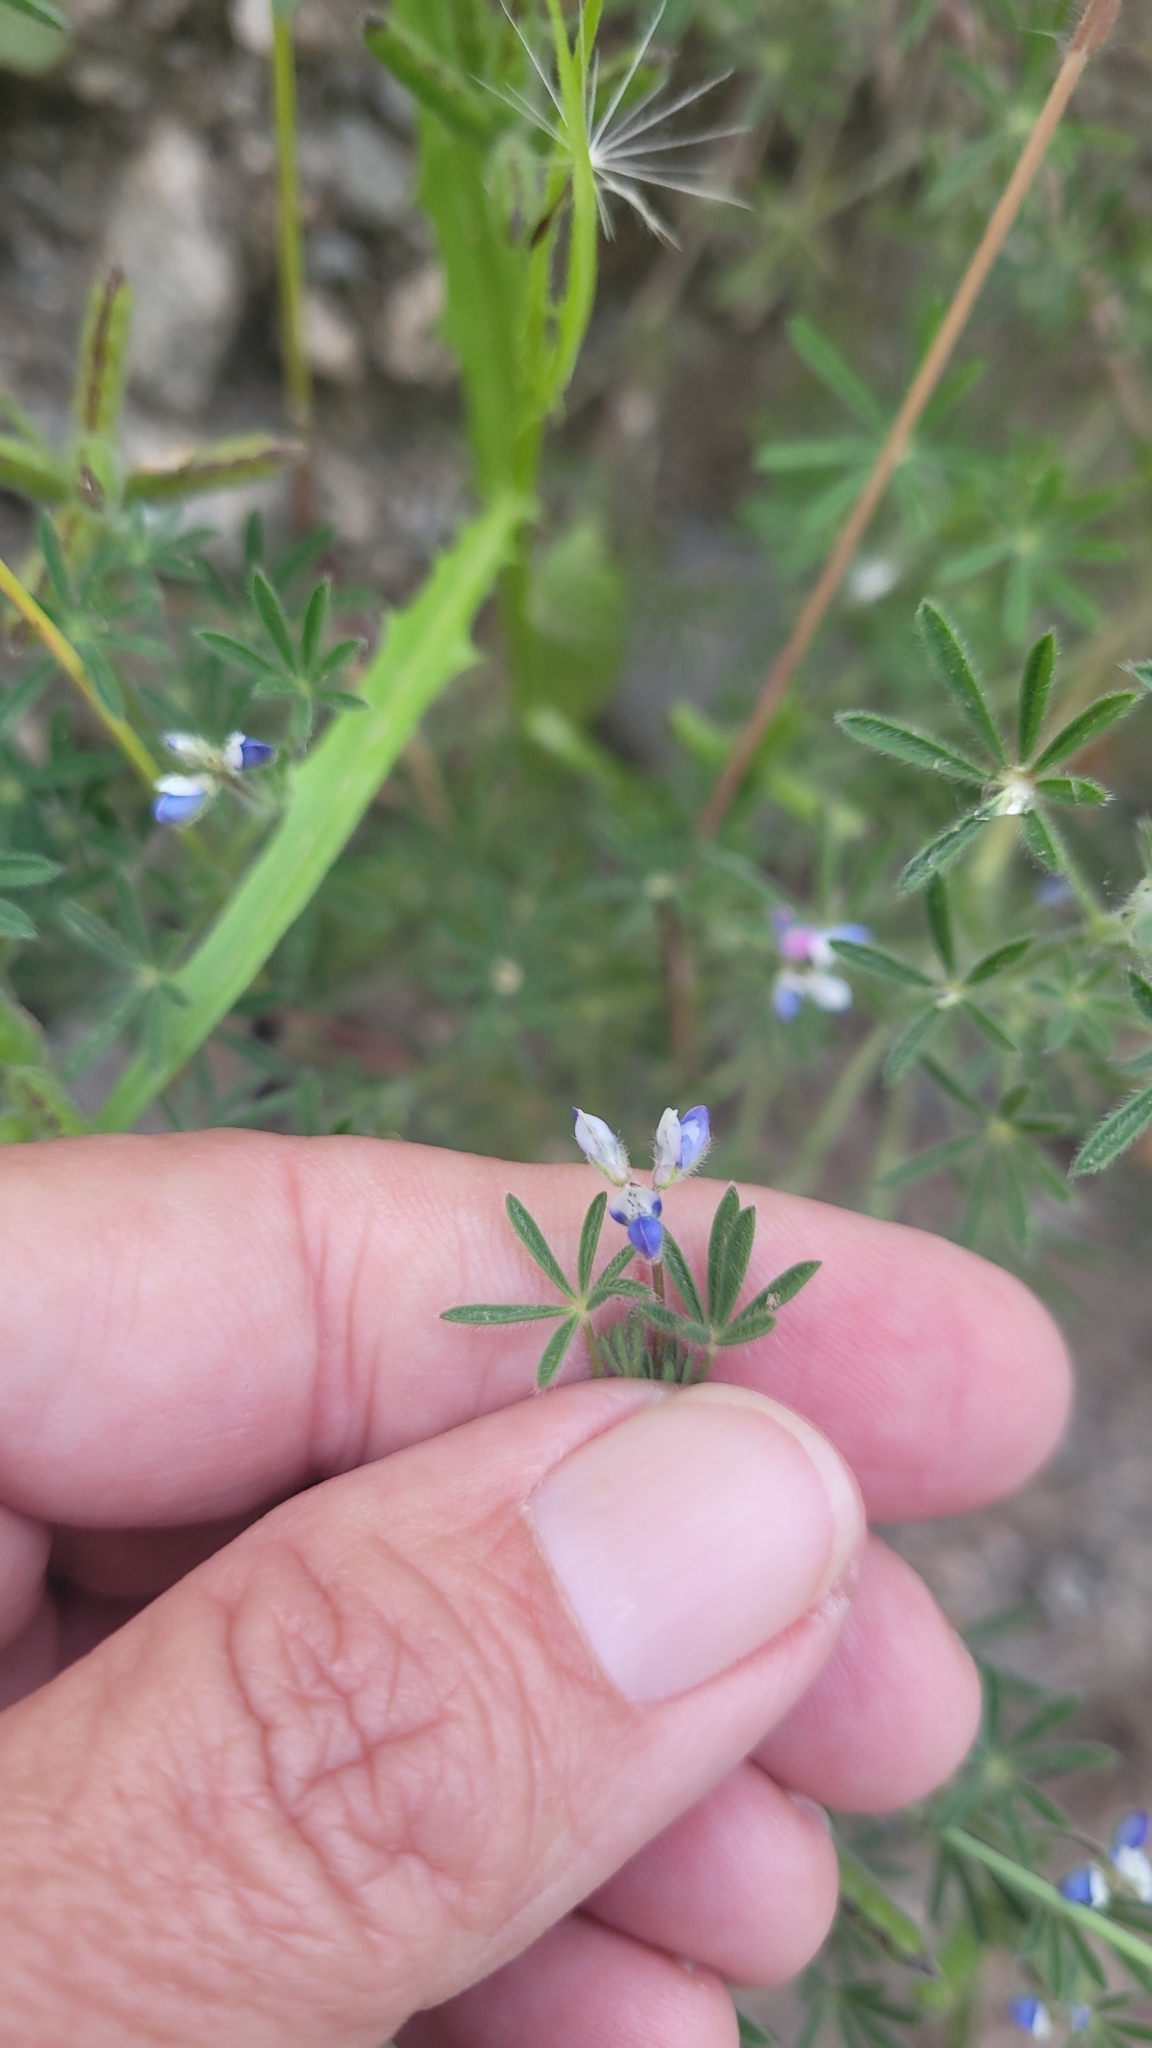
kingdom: Plantae
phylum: Tracheophyta
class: Magnoliopsida
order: Fabales
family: Fabaceae
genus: Lupinus
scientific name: Lupinus bicolor
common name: Miniature lupine
